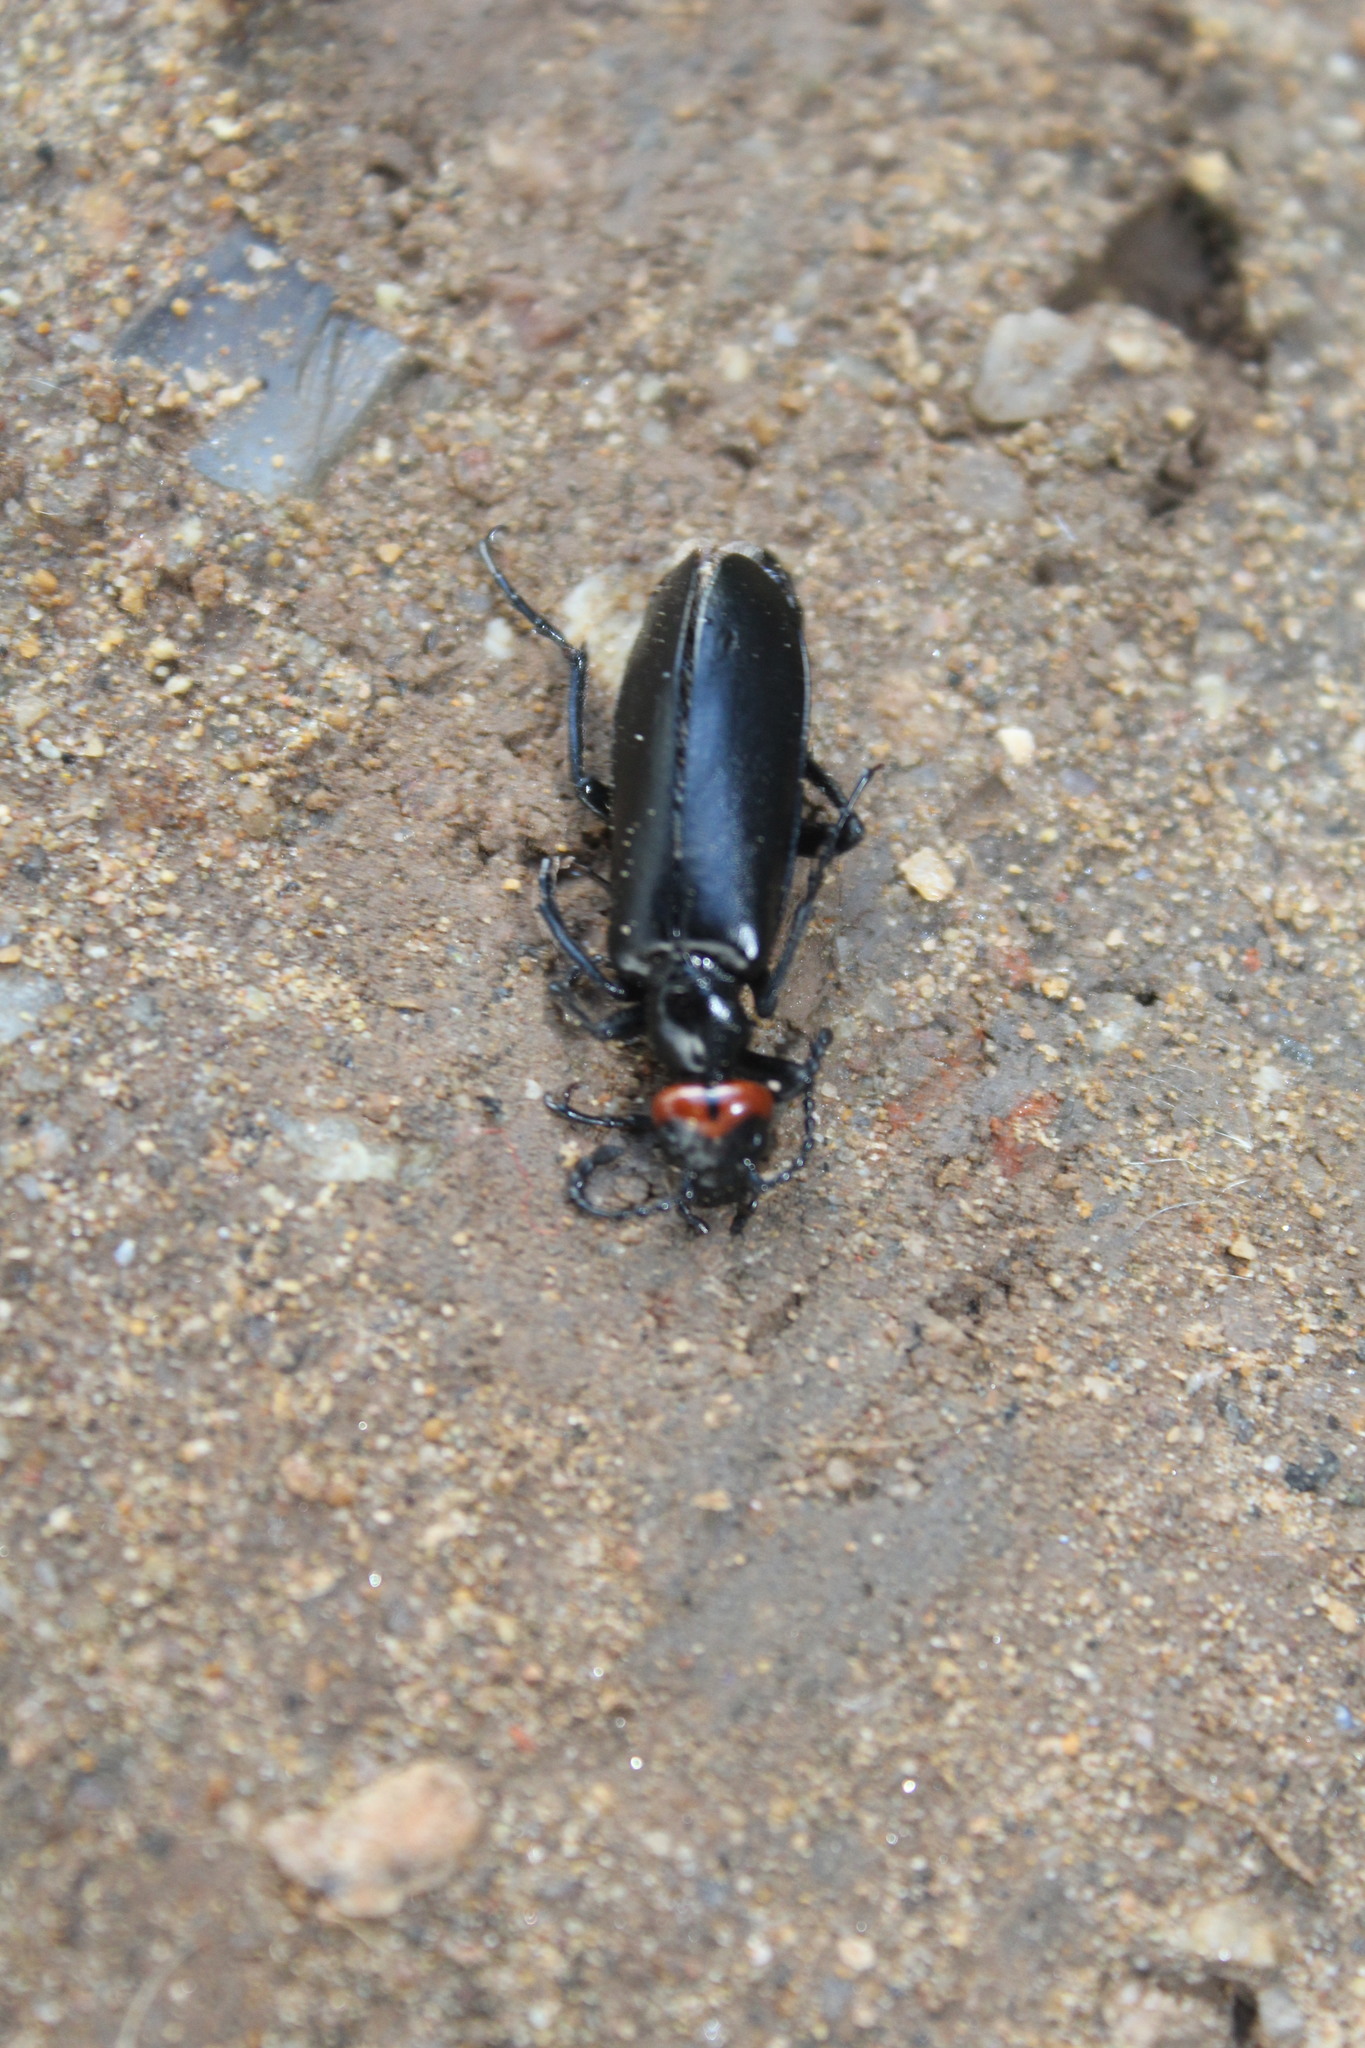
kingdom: Animalia
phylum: Arthropoda
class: Insecta
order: Coleoptera
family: Meloidae
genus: Lytta
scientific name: Lytta eucera
